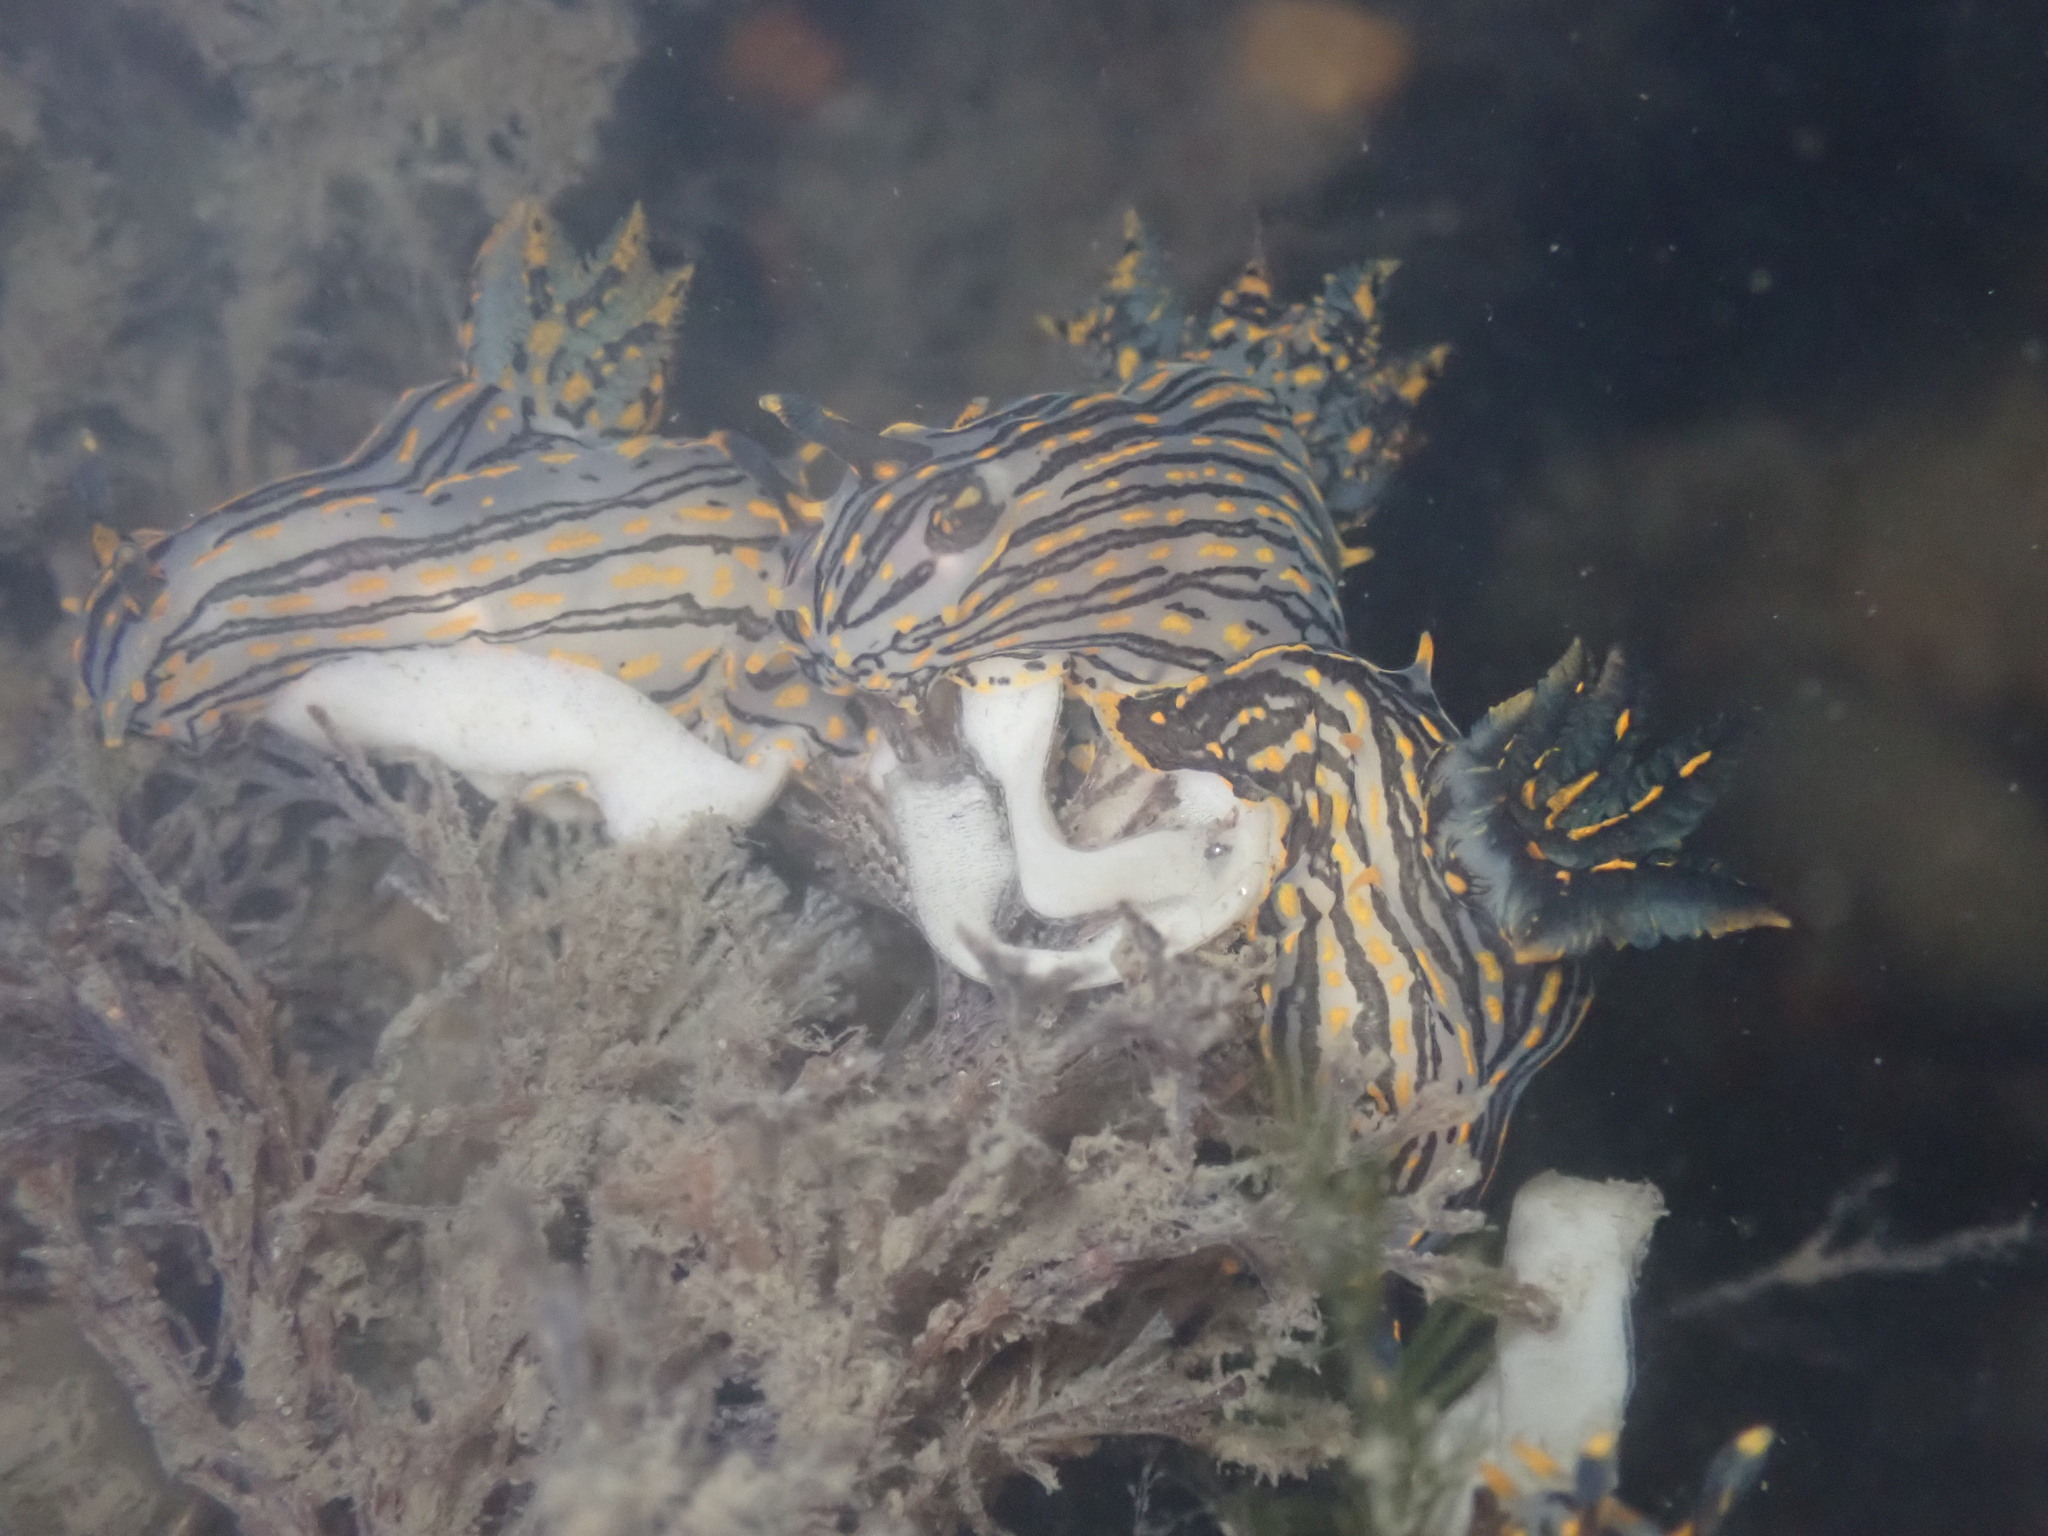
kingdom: Animalia
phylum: Mollusca
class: Gastropoda
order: Nudibranchia
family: Polyceridae
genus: Polycera
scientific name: Polycera atra
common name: Orange-spike polycera
